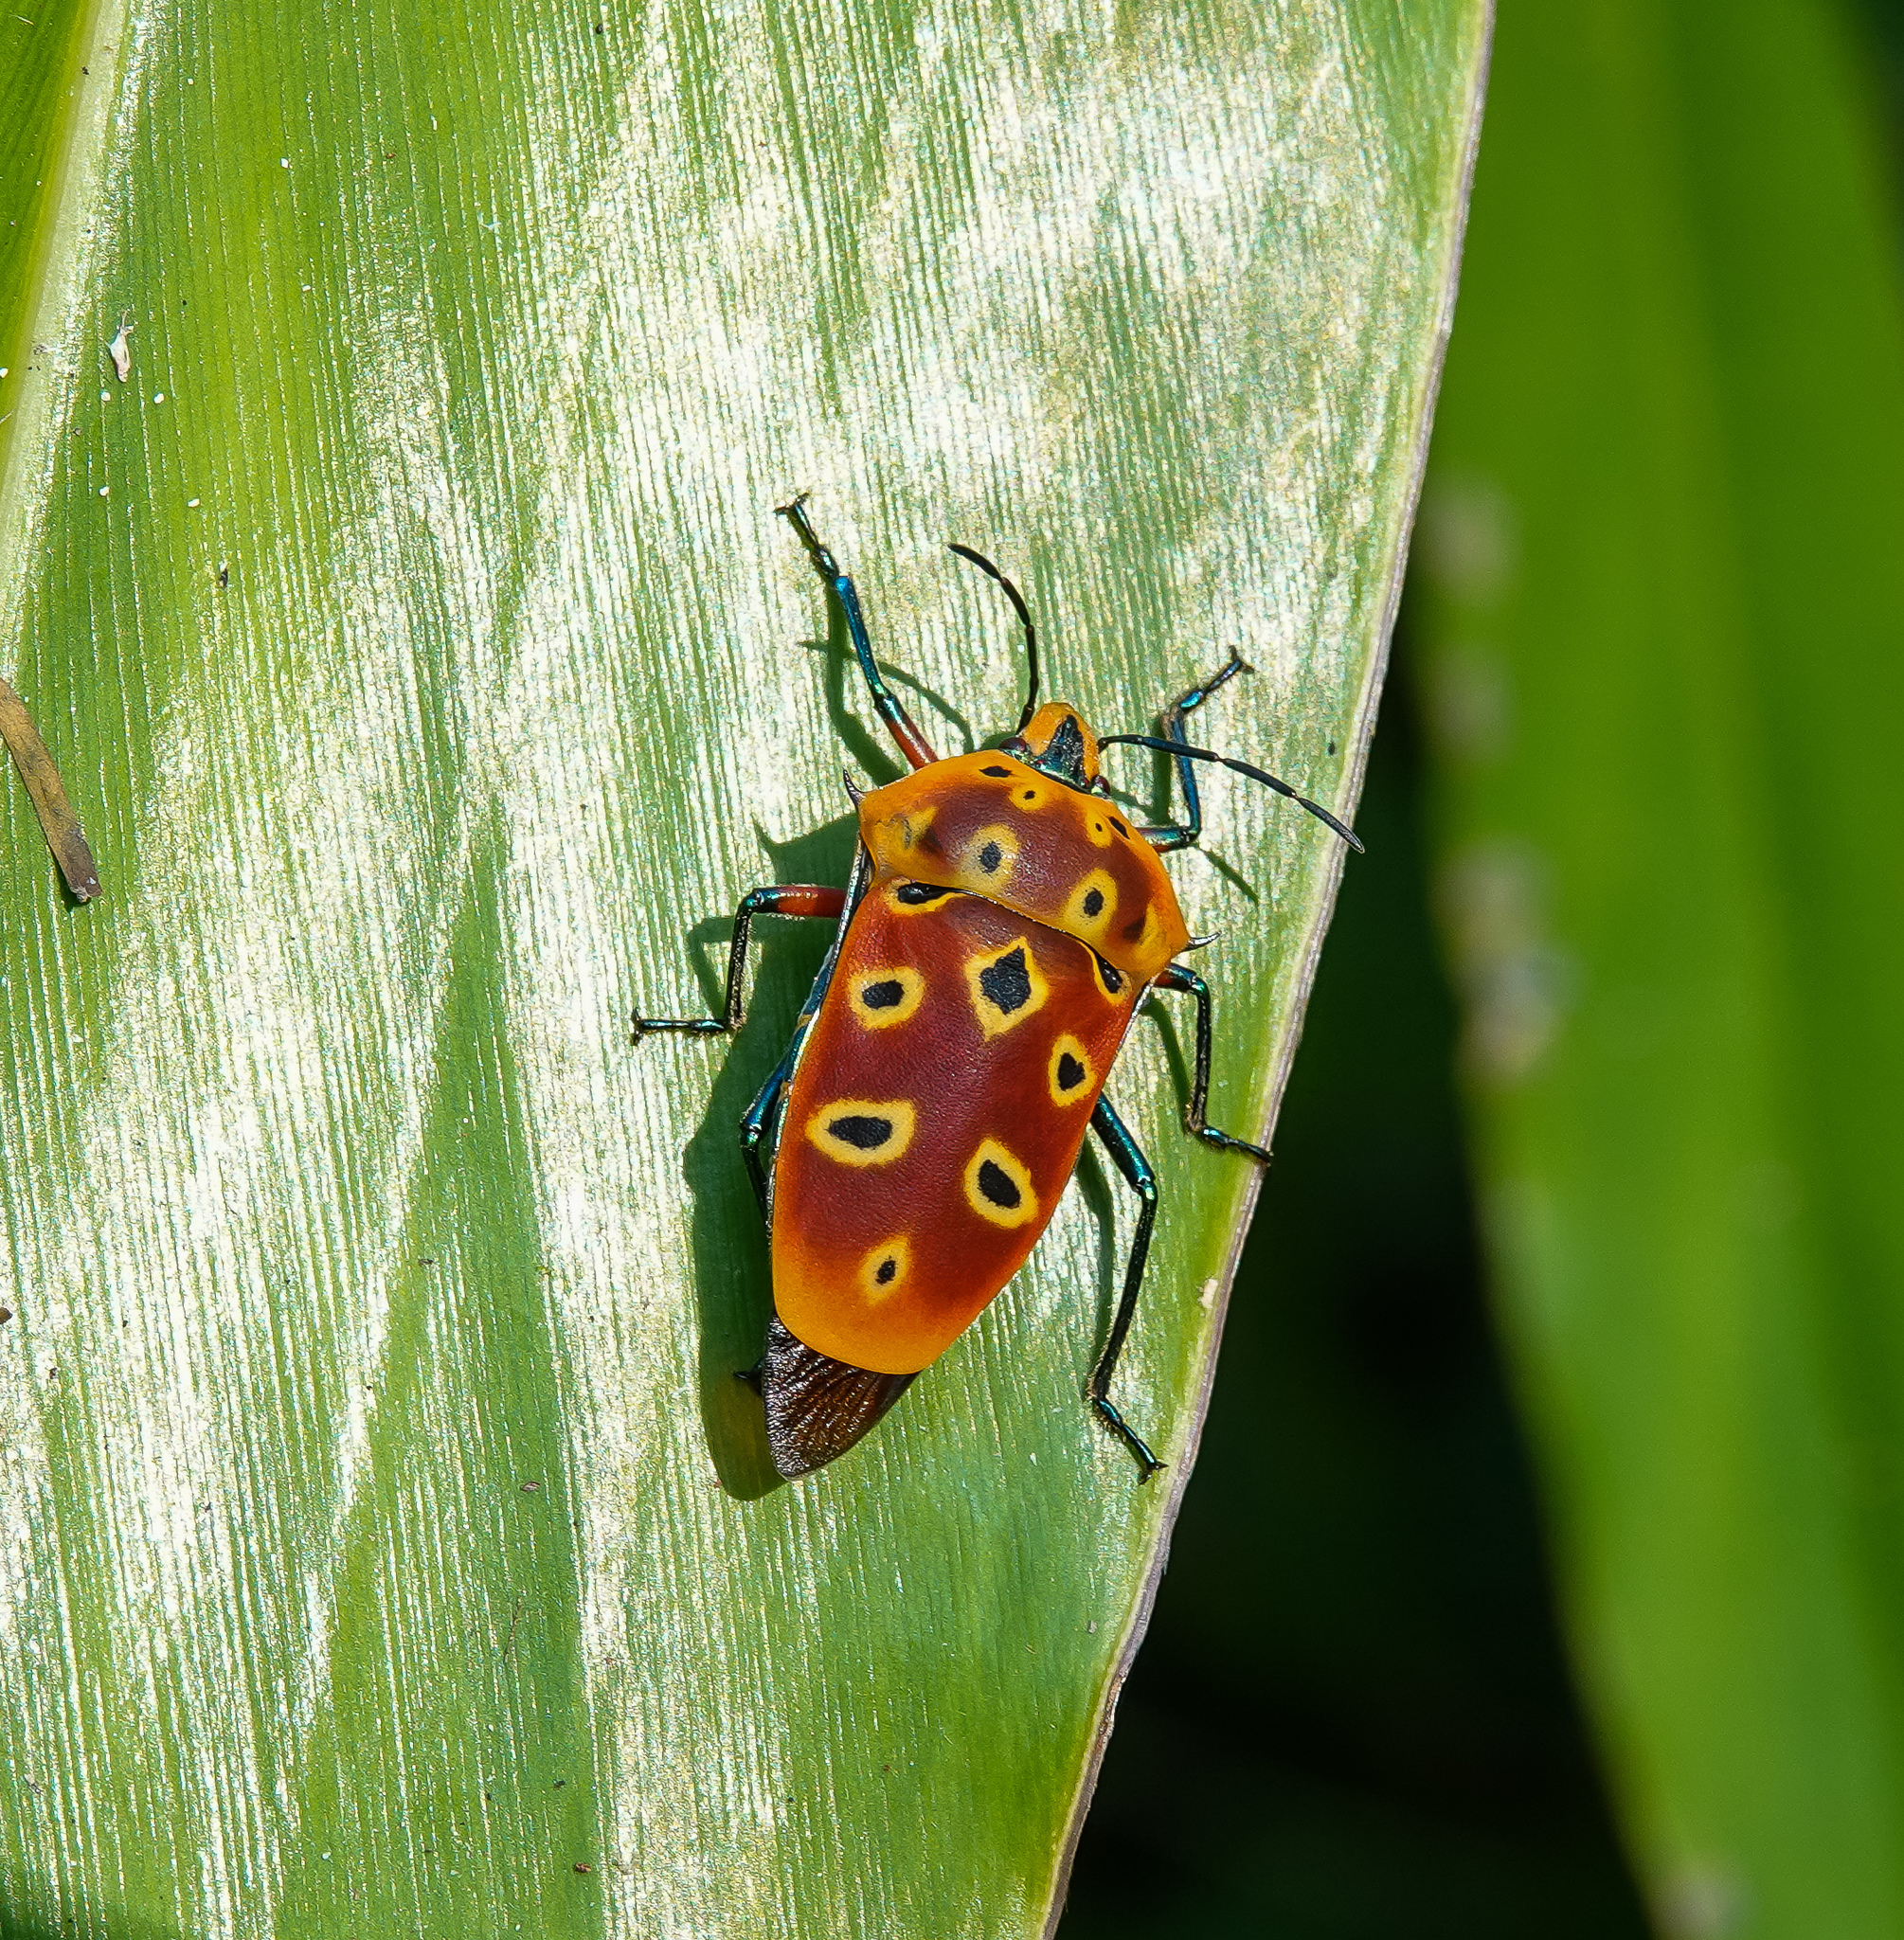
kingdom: Animalia
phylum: Arthropoda
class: Insecta
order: Hemiptera
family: Scutelleridae
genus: Cantao
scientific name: Cantao ocellatus
